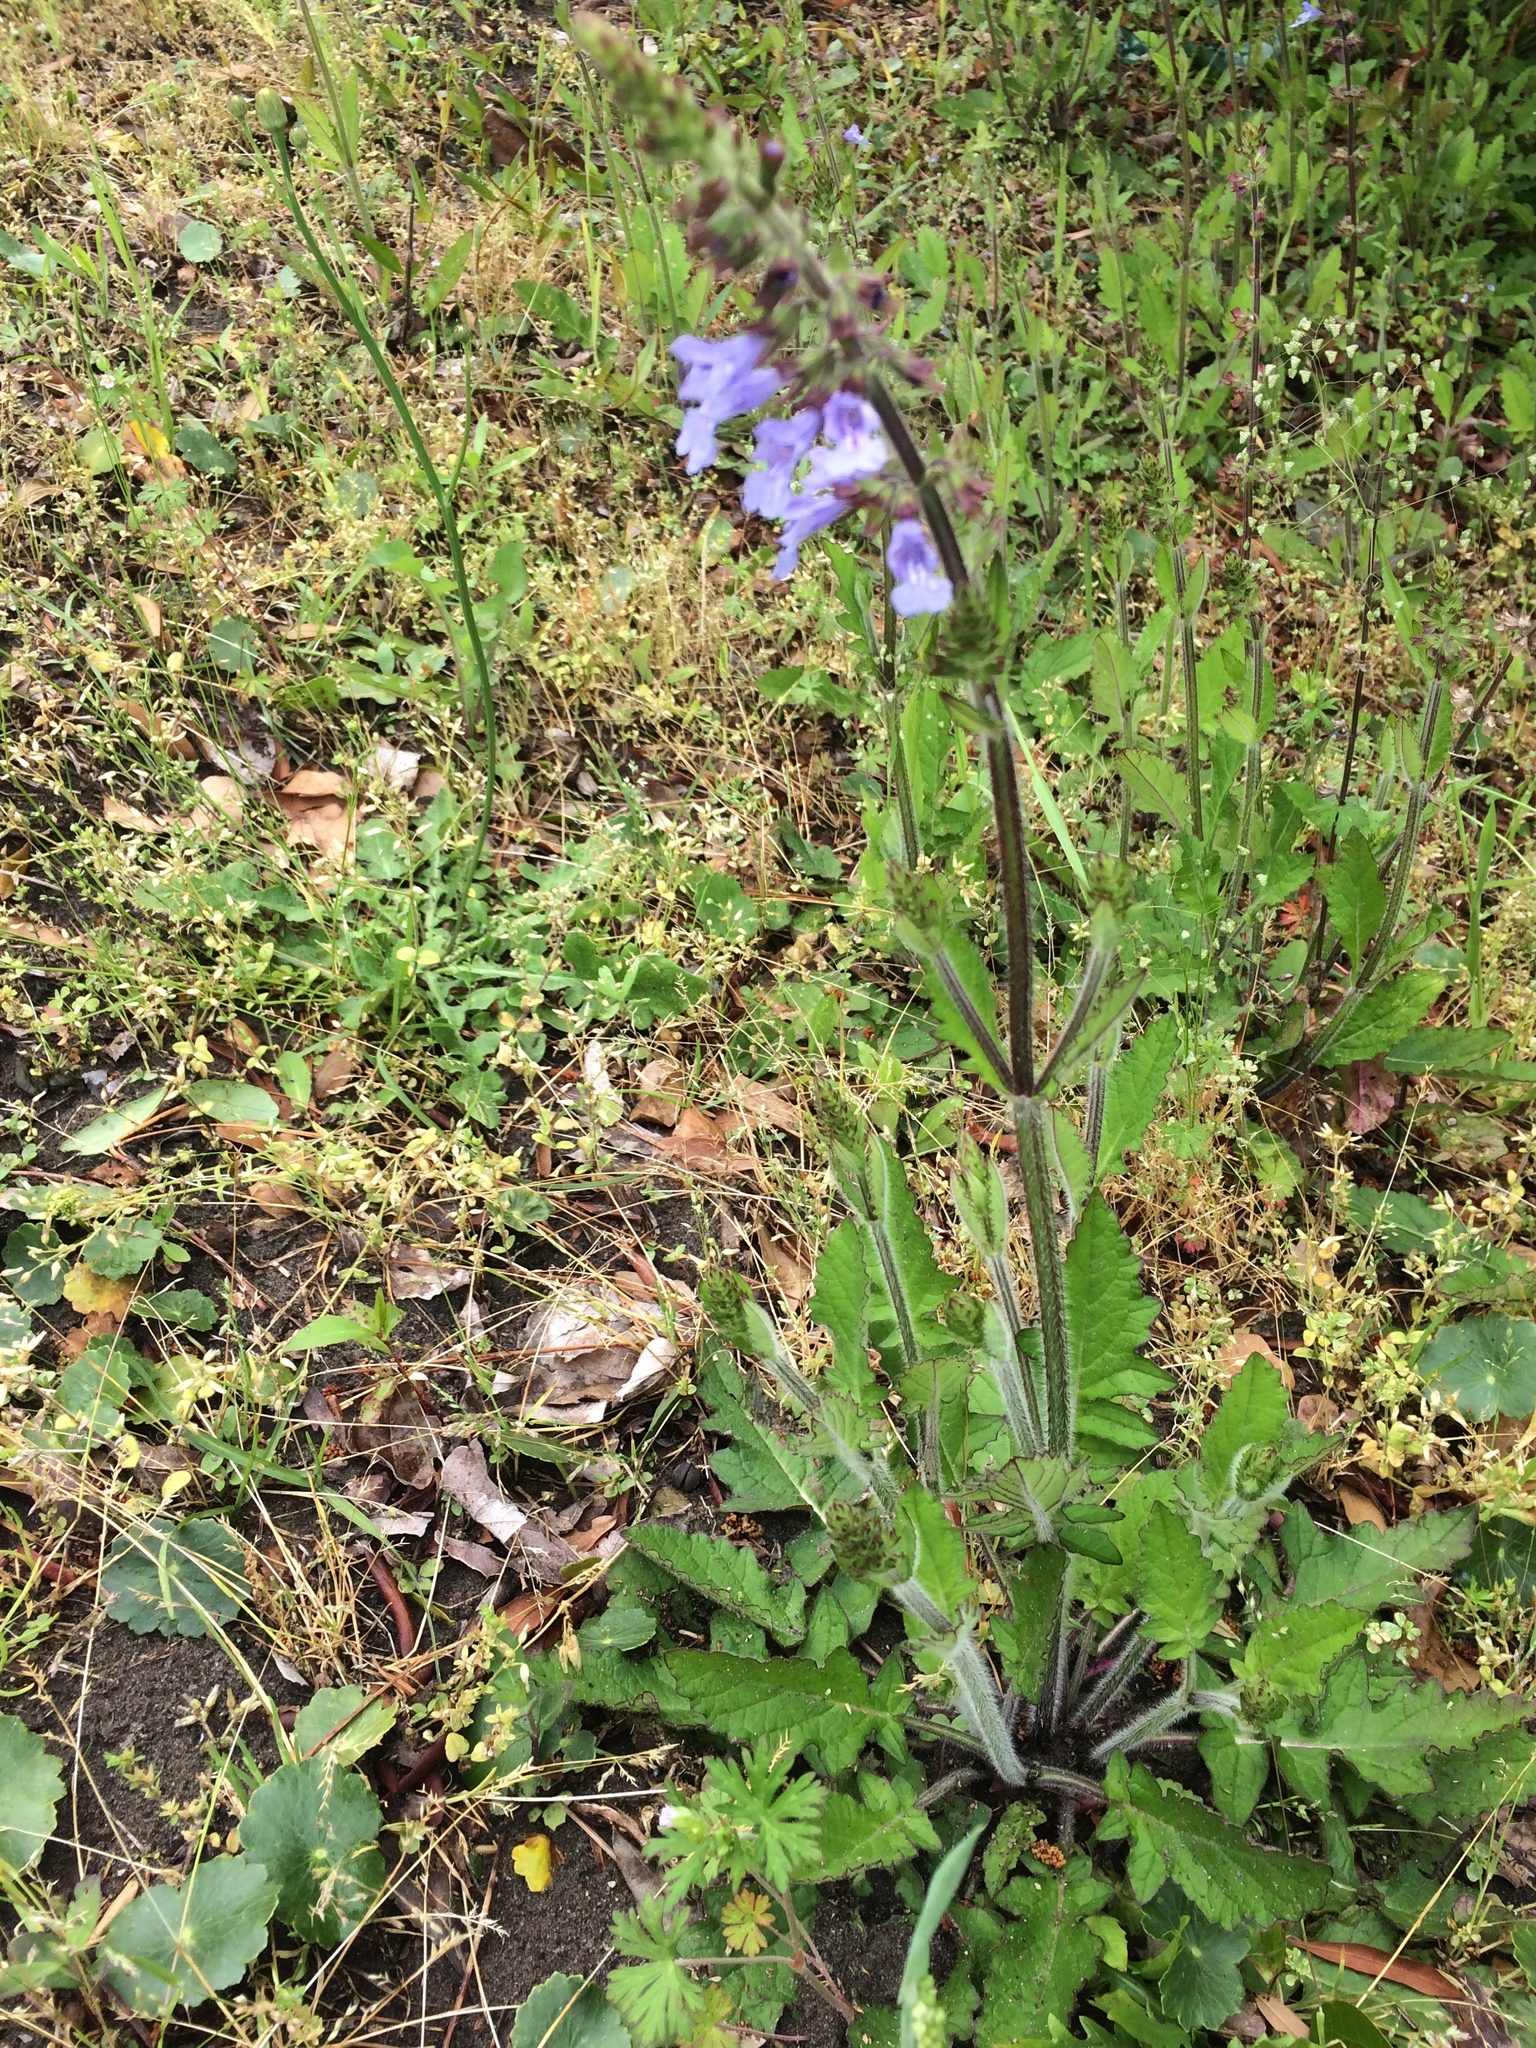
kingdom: Plantae
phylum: Tracheophyta
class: Magnoliopsida
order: Lamiales
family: Lamiaceae
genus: Salvia
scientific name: Salvia lyrata
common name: Cancerweed
